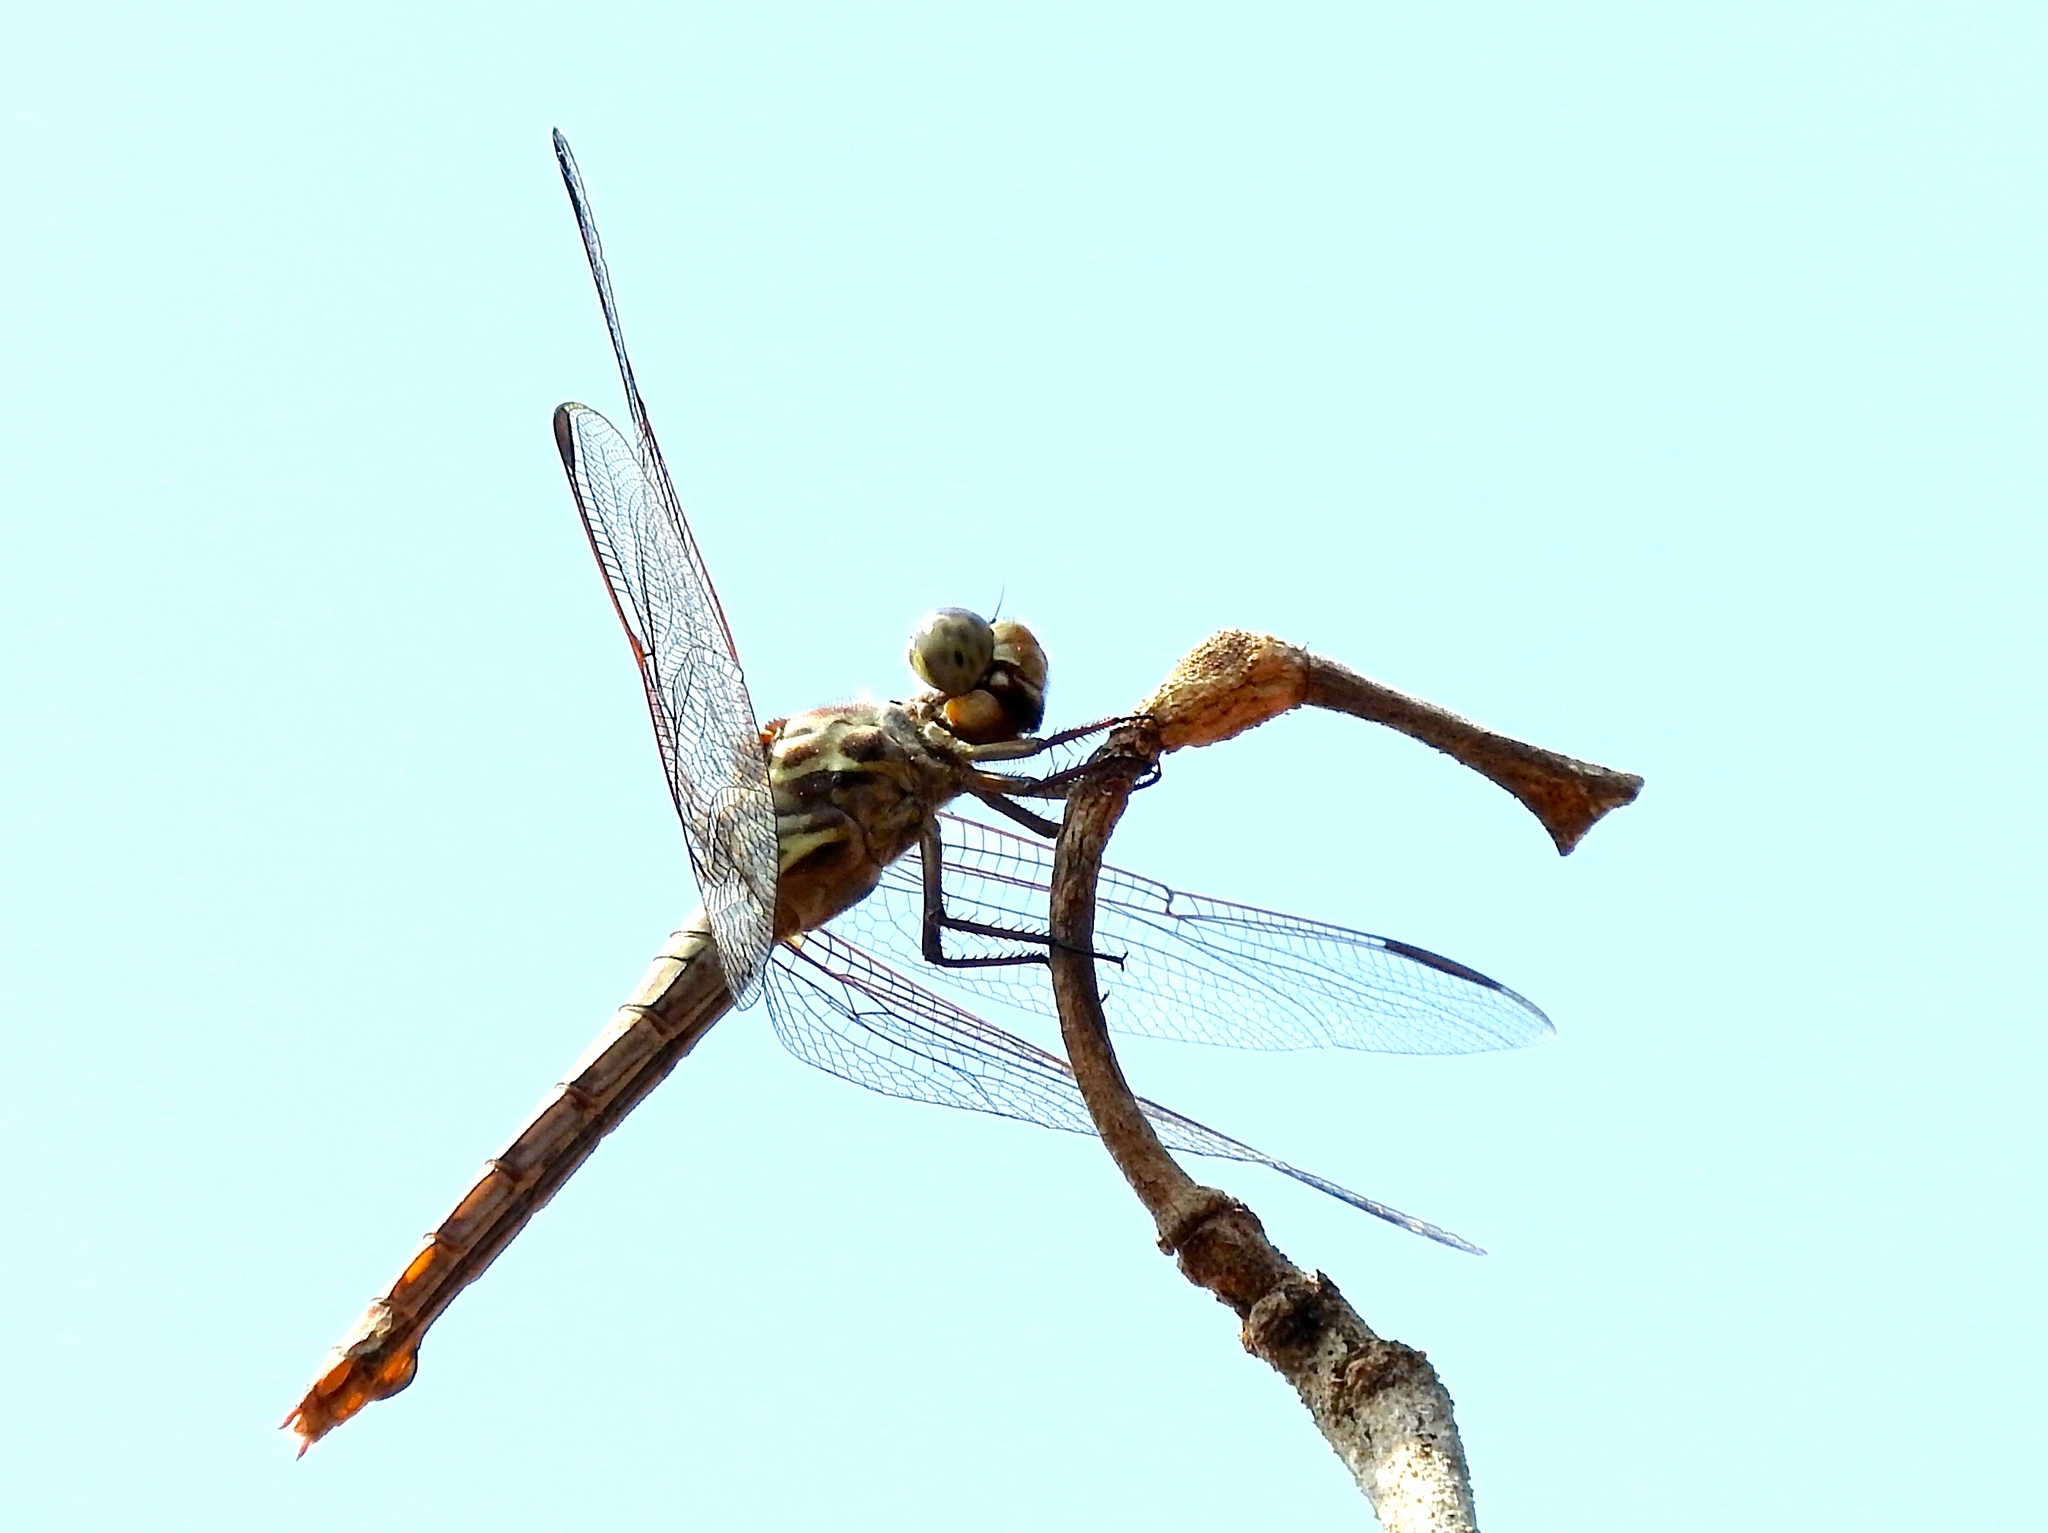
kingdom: Animalia
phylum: Arthropoda
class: Insecta
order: Odonata
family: Libellulidae
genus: Orthemis
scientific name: Orthemis ferruginea
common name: Roseate skimmer
